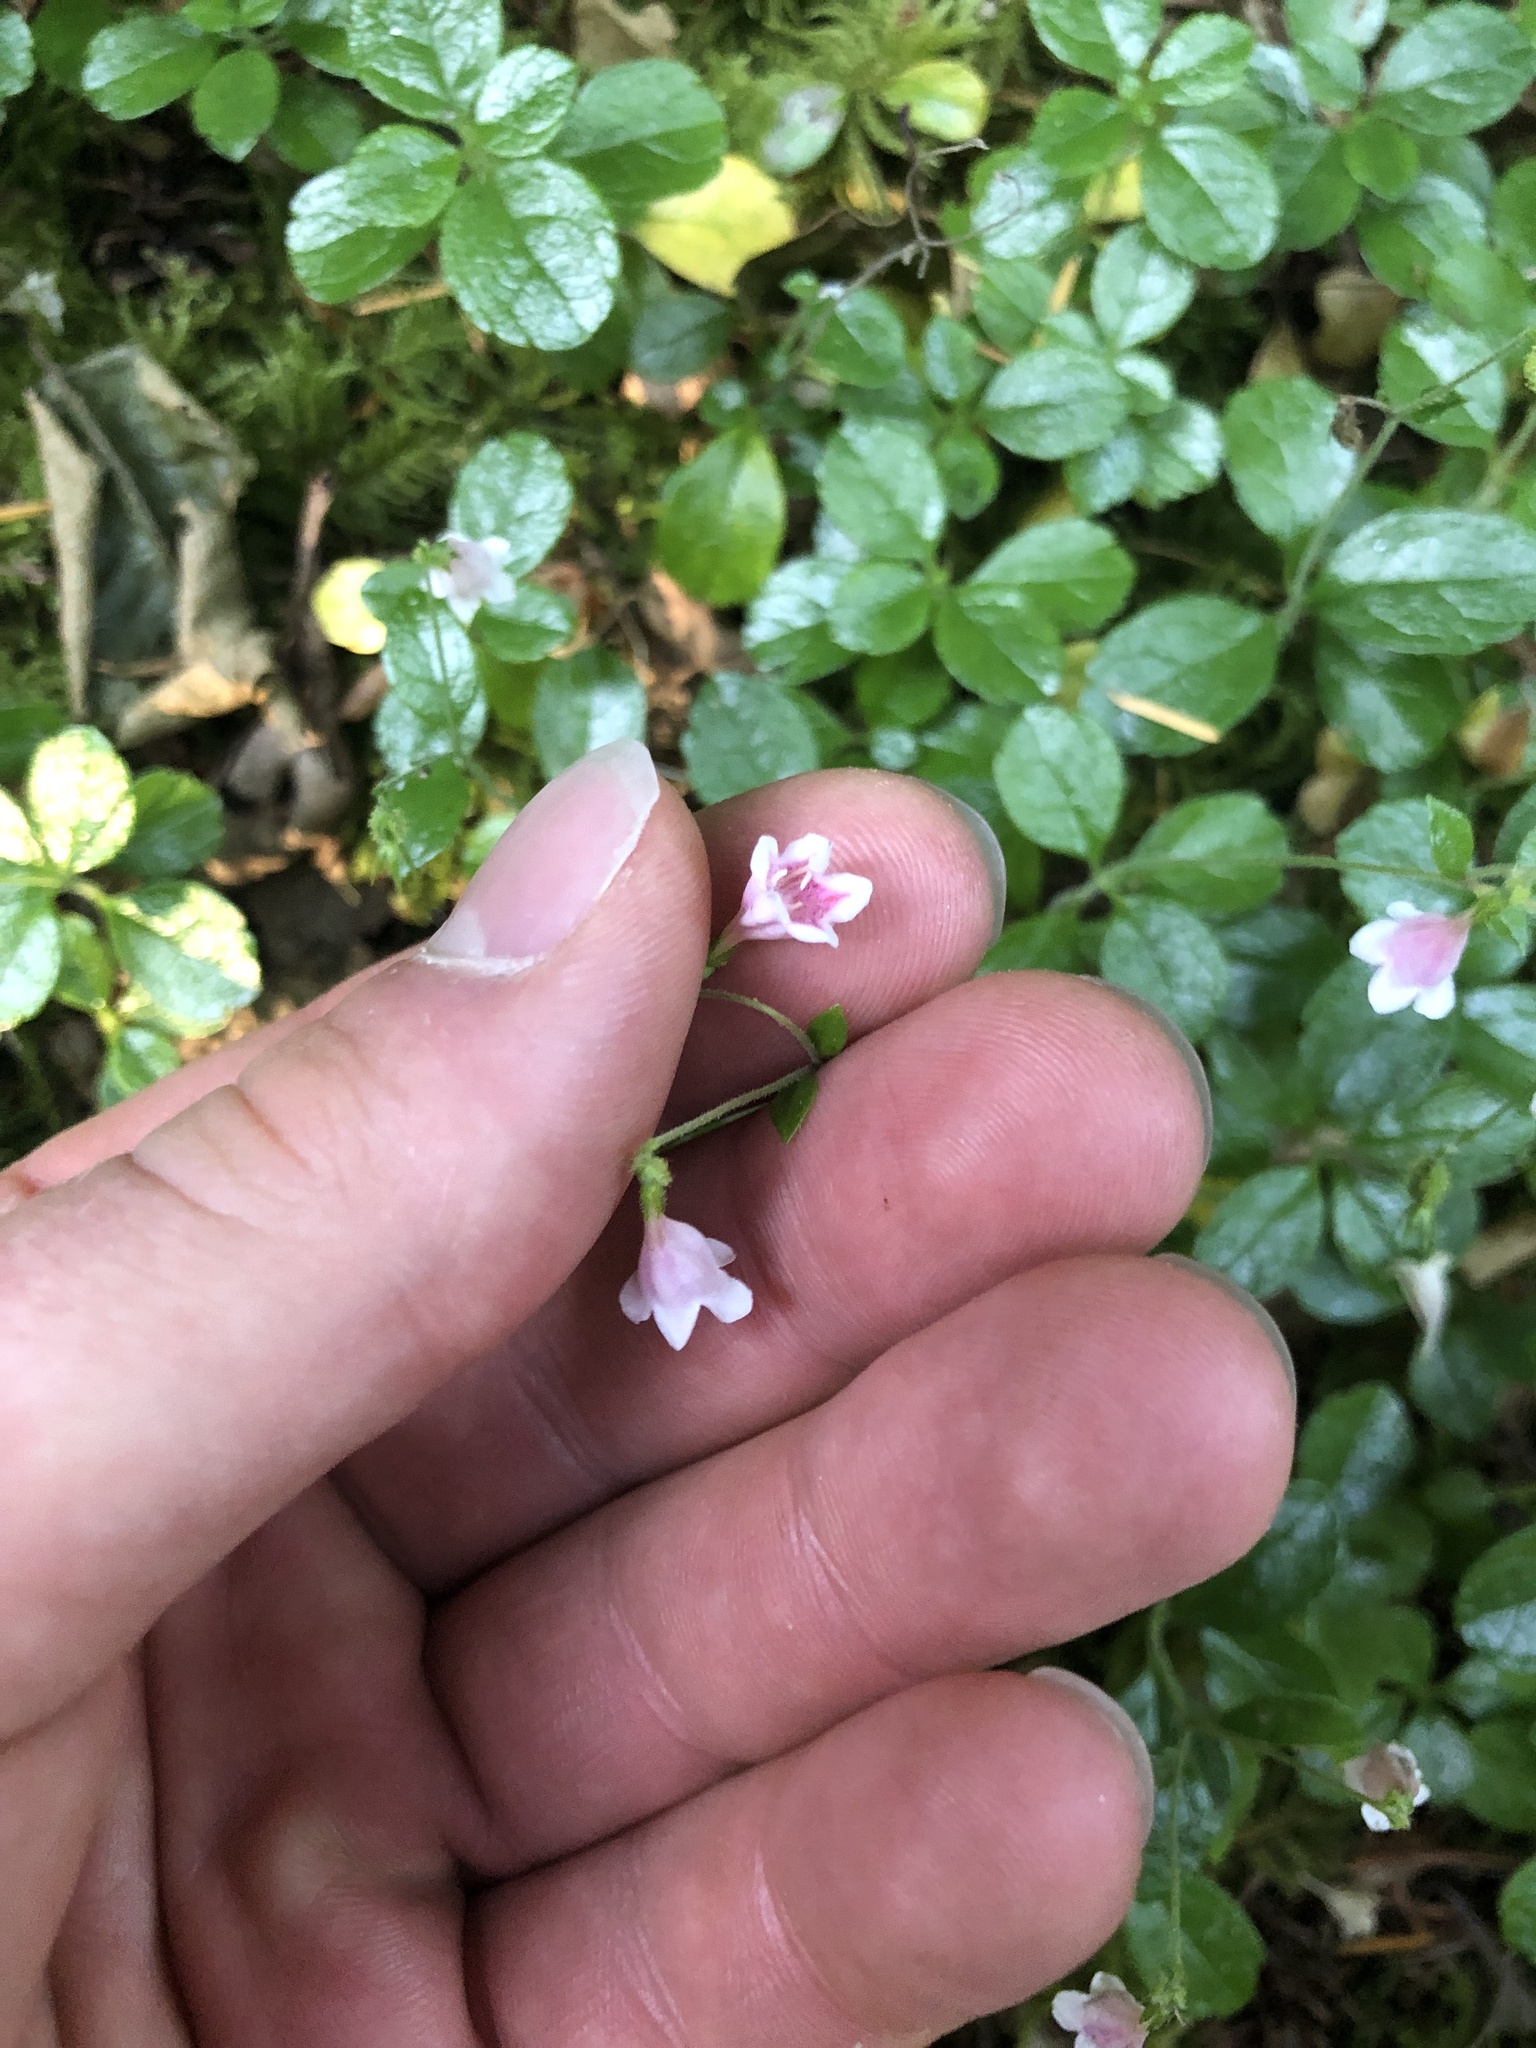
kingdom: Plantae
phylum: Tracheophyta
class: Magnoliopsida
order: Dipsacales
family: Caprifoliaceae
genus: Linnaea
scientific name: Linnaea borealis
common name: Twinflower
